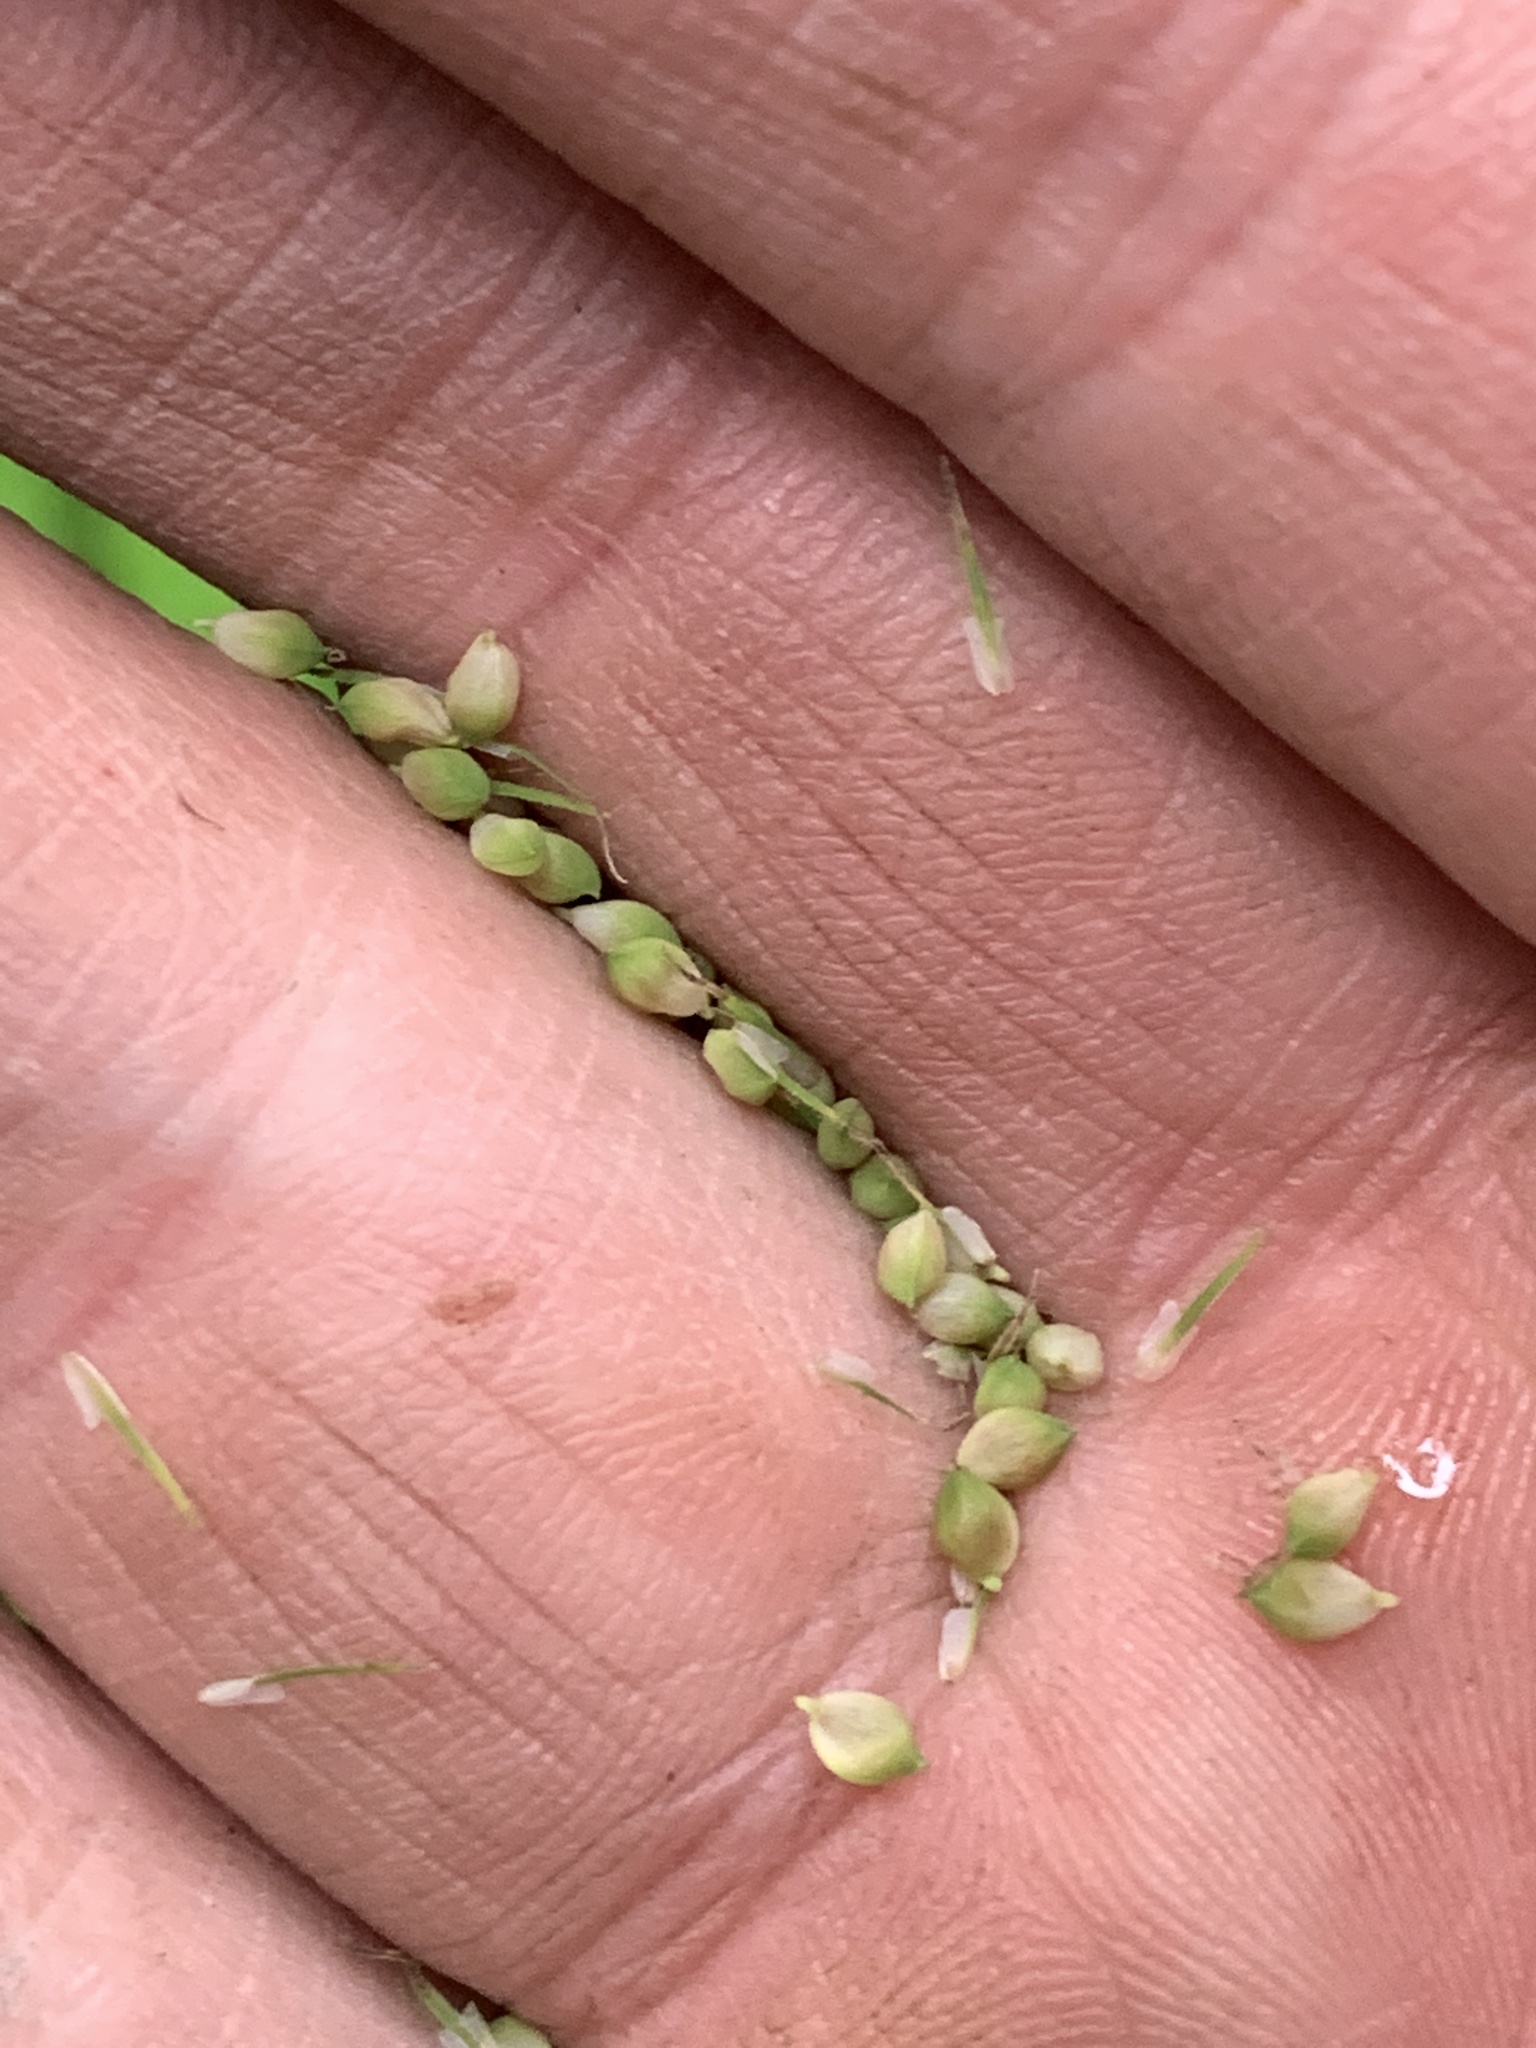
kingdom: Plantae
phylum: Tracheophyta
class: Liliopsida
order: Poales
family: Cyperaceae
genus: Carex
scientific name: Carex crinita
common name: Fringed sedge
